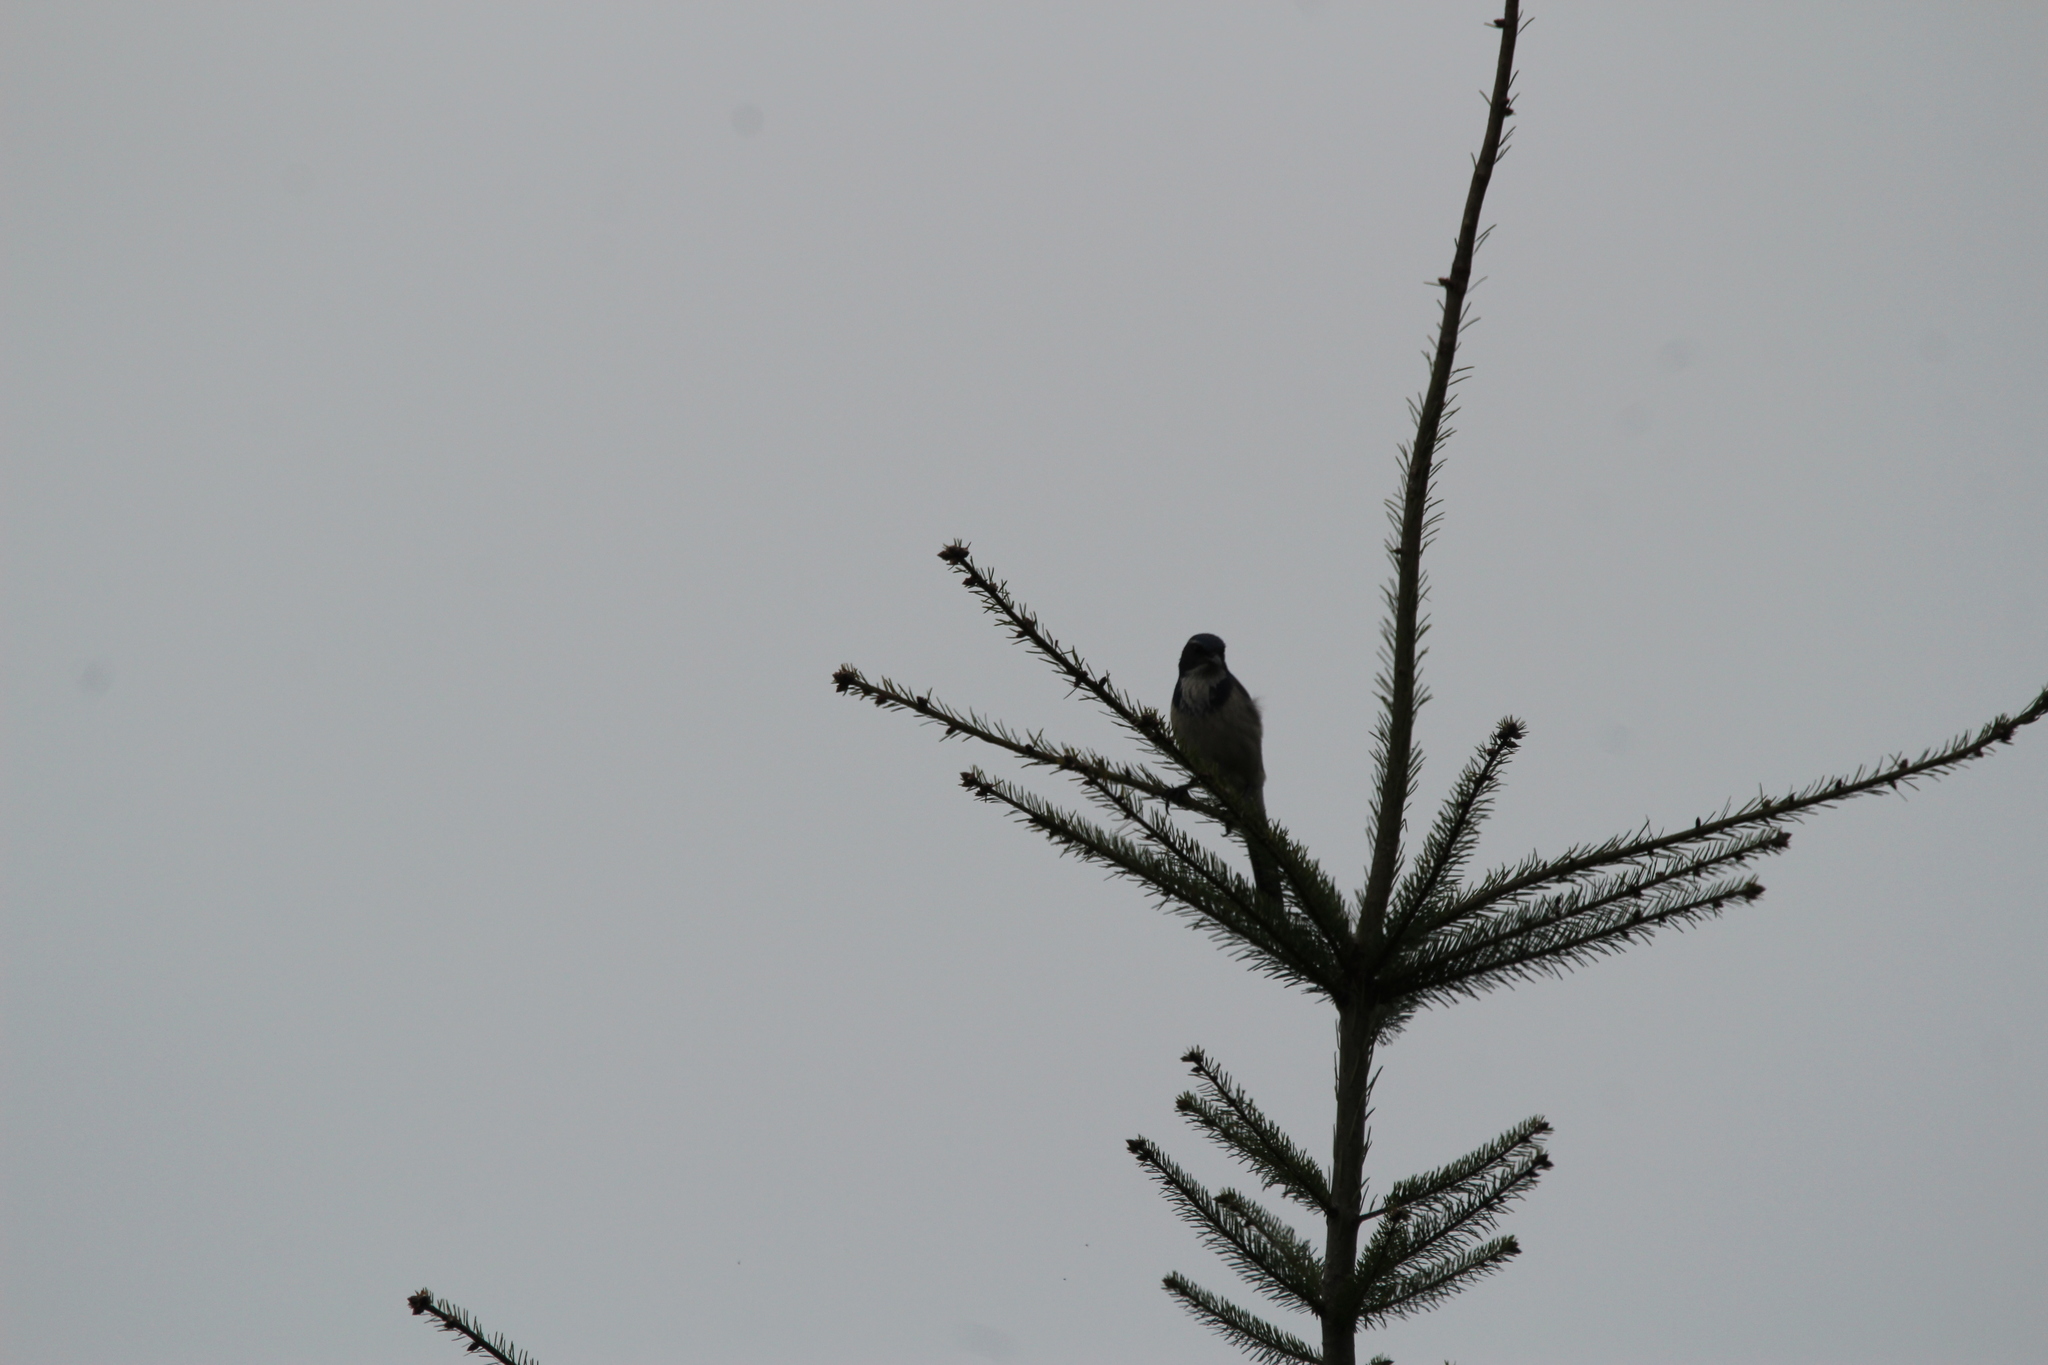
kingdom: Animalia
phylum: Chordata
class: Aves
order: Passeriformes
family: Corvidae
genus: Aphelocoma
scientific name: Aphelocoma californica
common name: California scrub-jay
